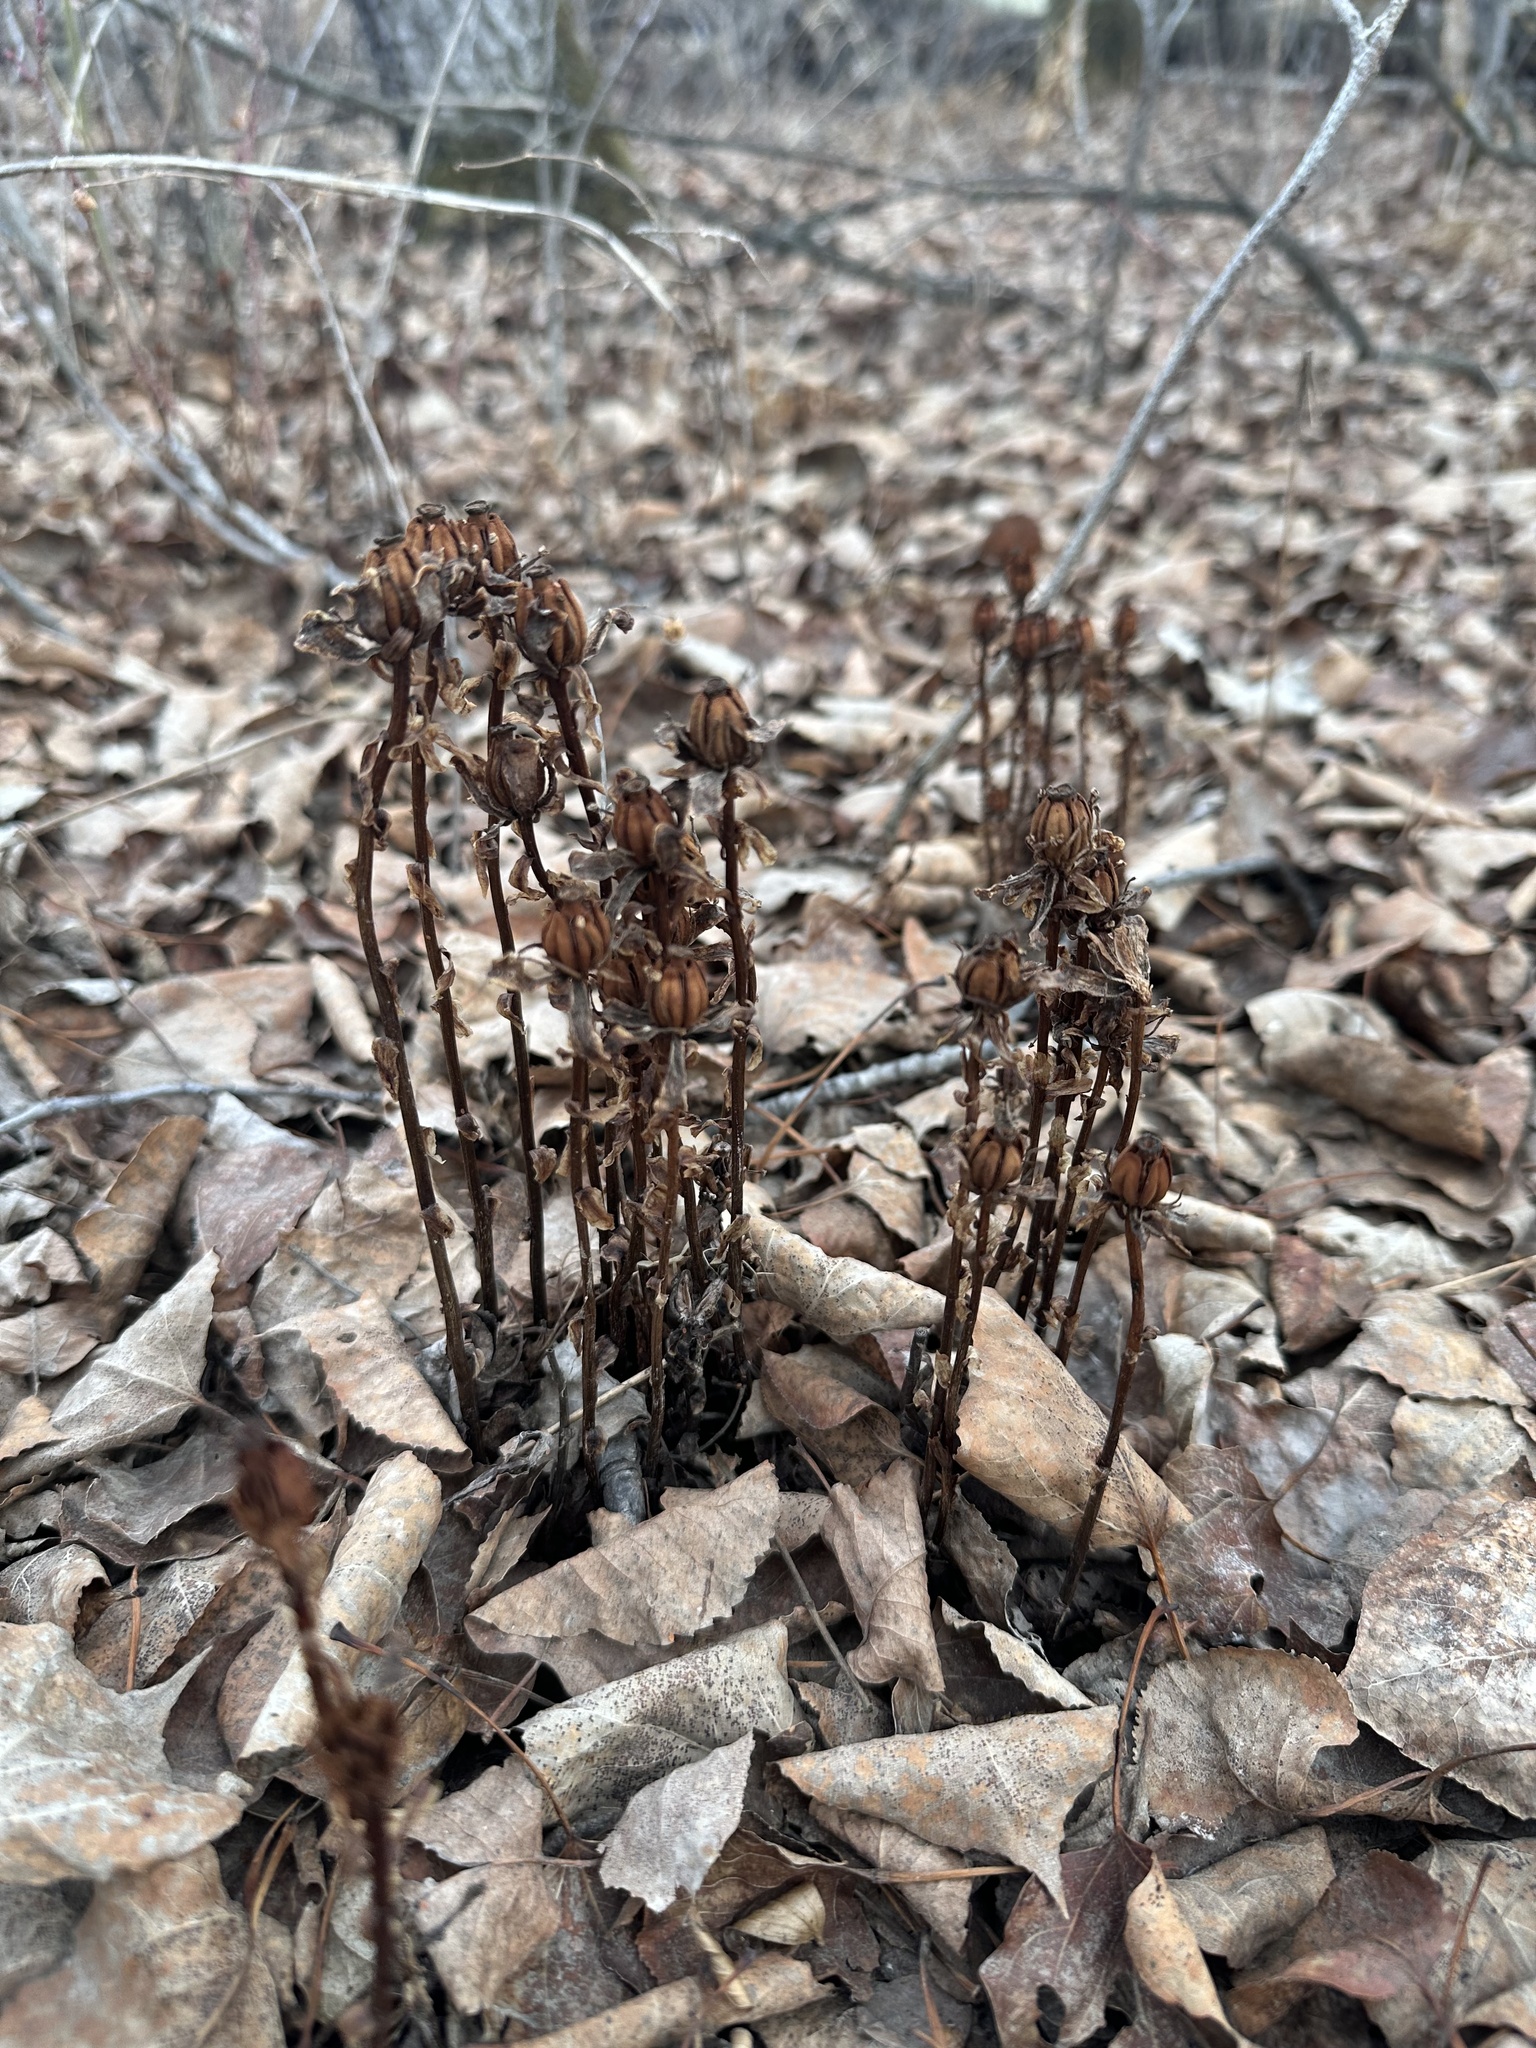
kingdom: Plantae
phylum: Tracheophyta
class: Magnoliopsida
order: Ericales
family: Ericaceae
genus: Monotropa
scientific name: Monotropa uniflora
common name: Convulsion root
